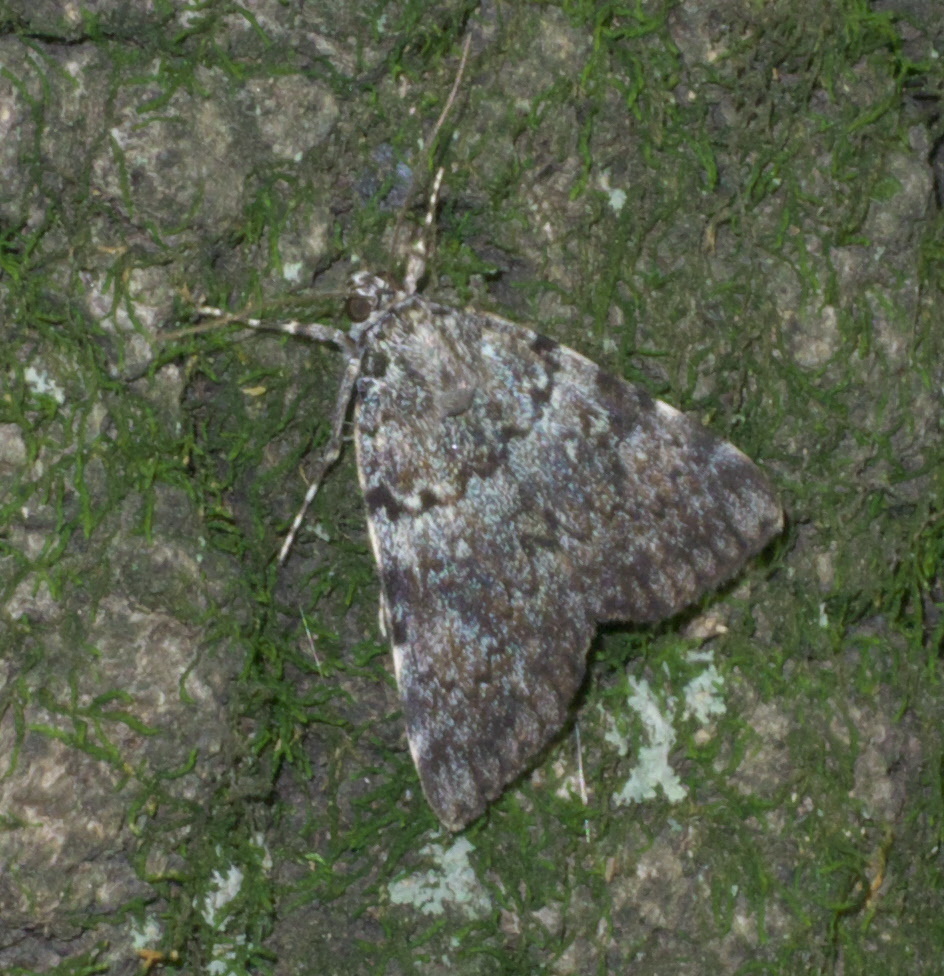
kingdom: Animalia
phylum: Arthropoda
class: Insecta
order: Lepidoptera
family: Erebidae
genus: Catocala
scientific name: Catocala jair
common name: Jair underwing
